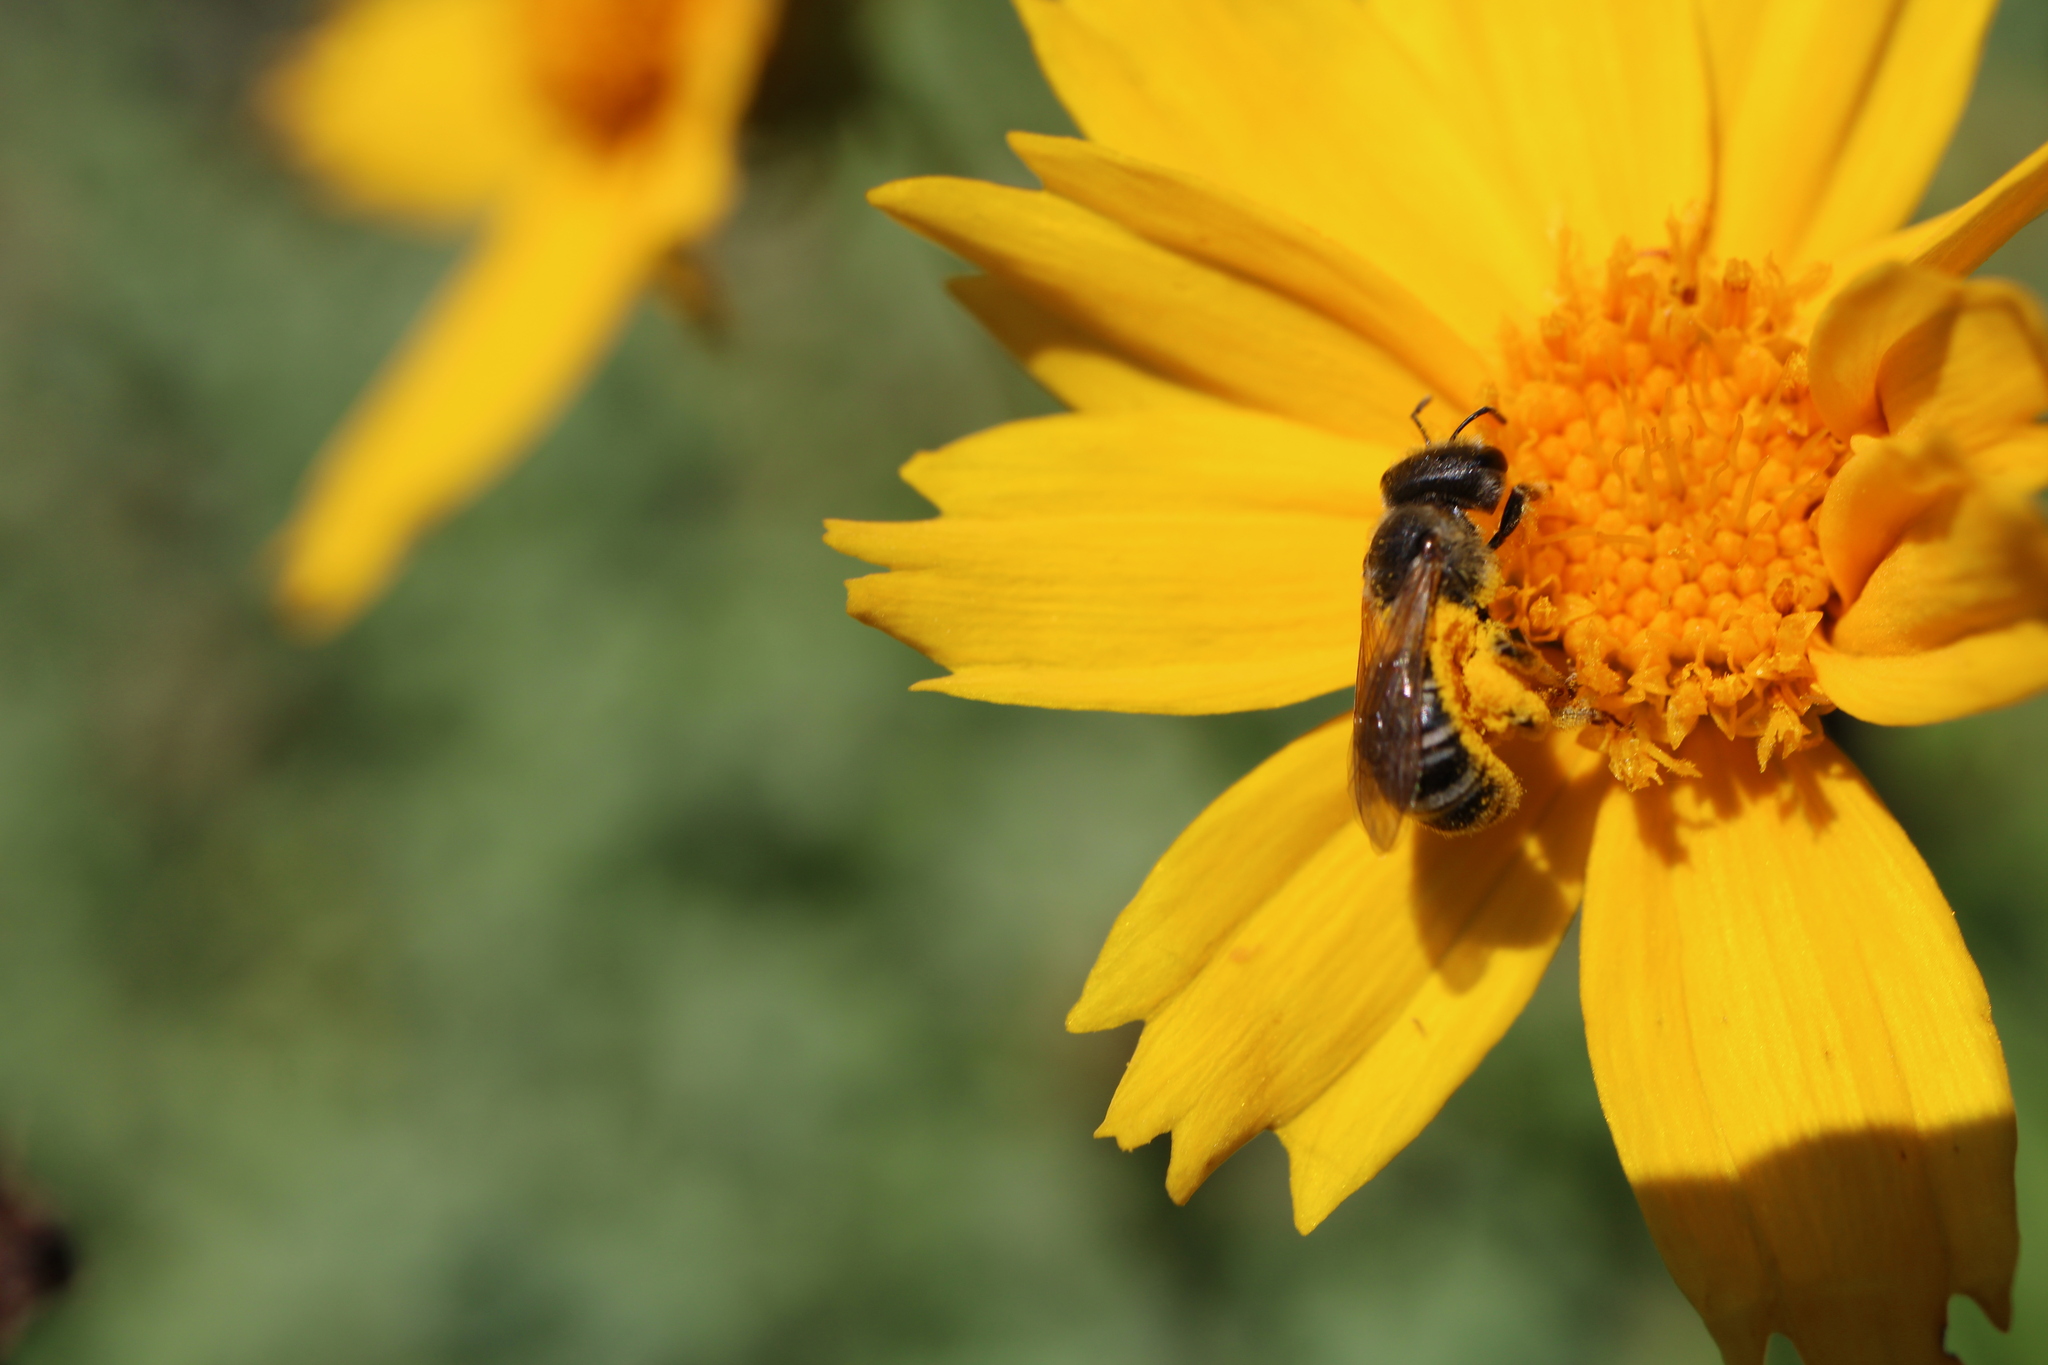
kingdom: Animalia
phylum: Arthropoda
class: Insecta
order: Hymenoptera
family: Halictidae
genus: Halictus
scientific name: Halictus ligatus
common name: Ligated furrow bee
